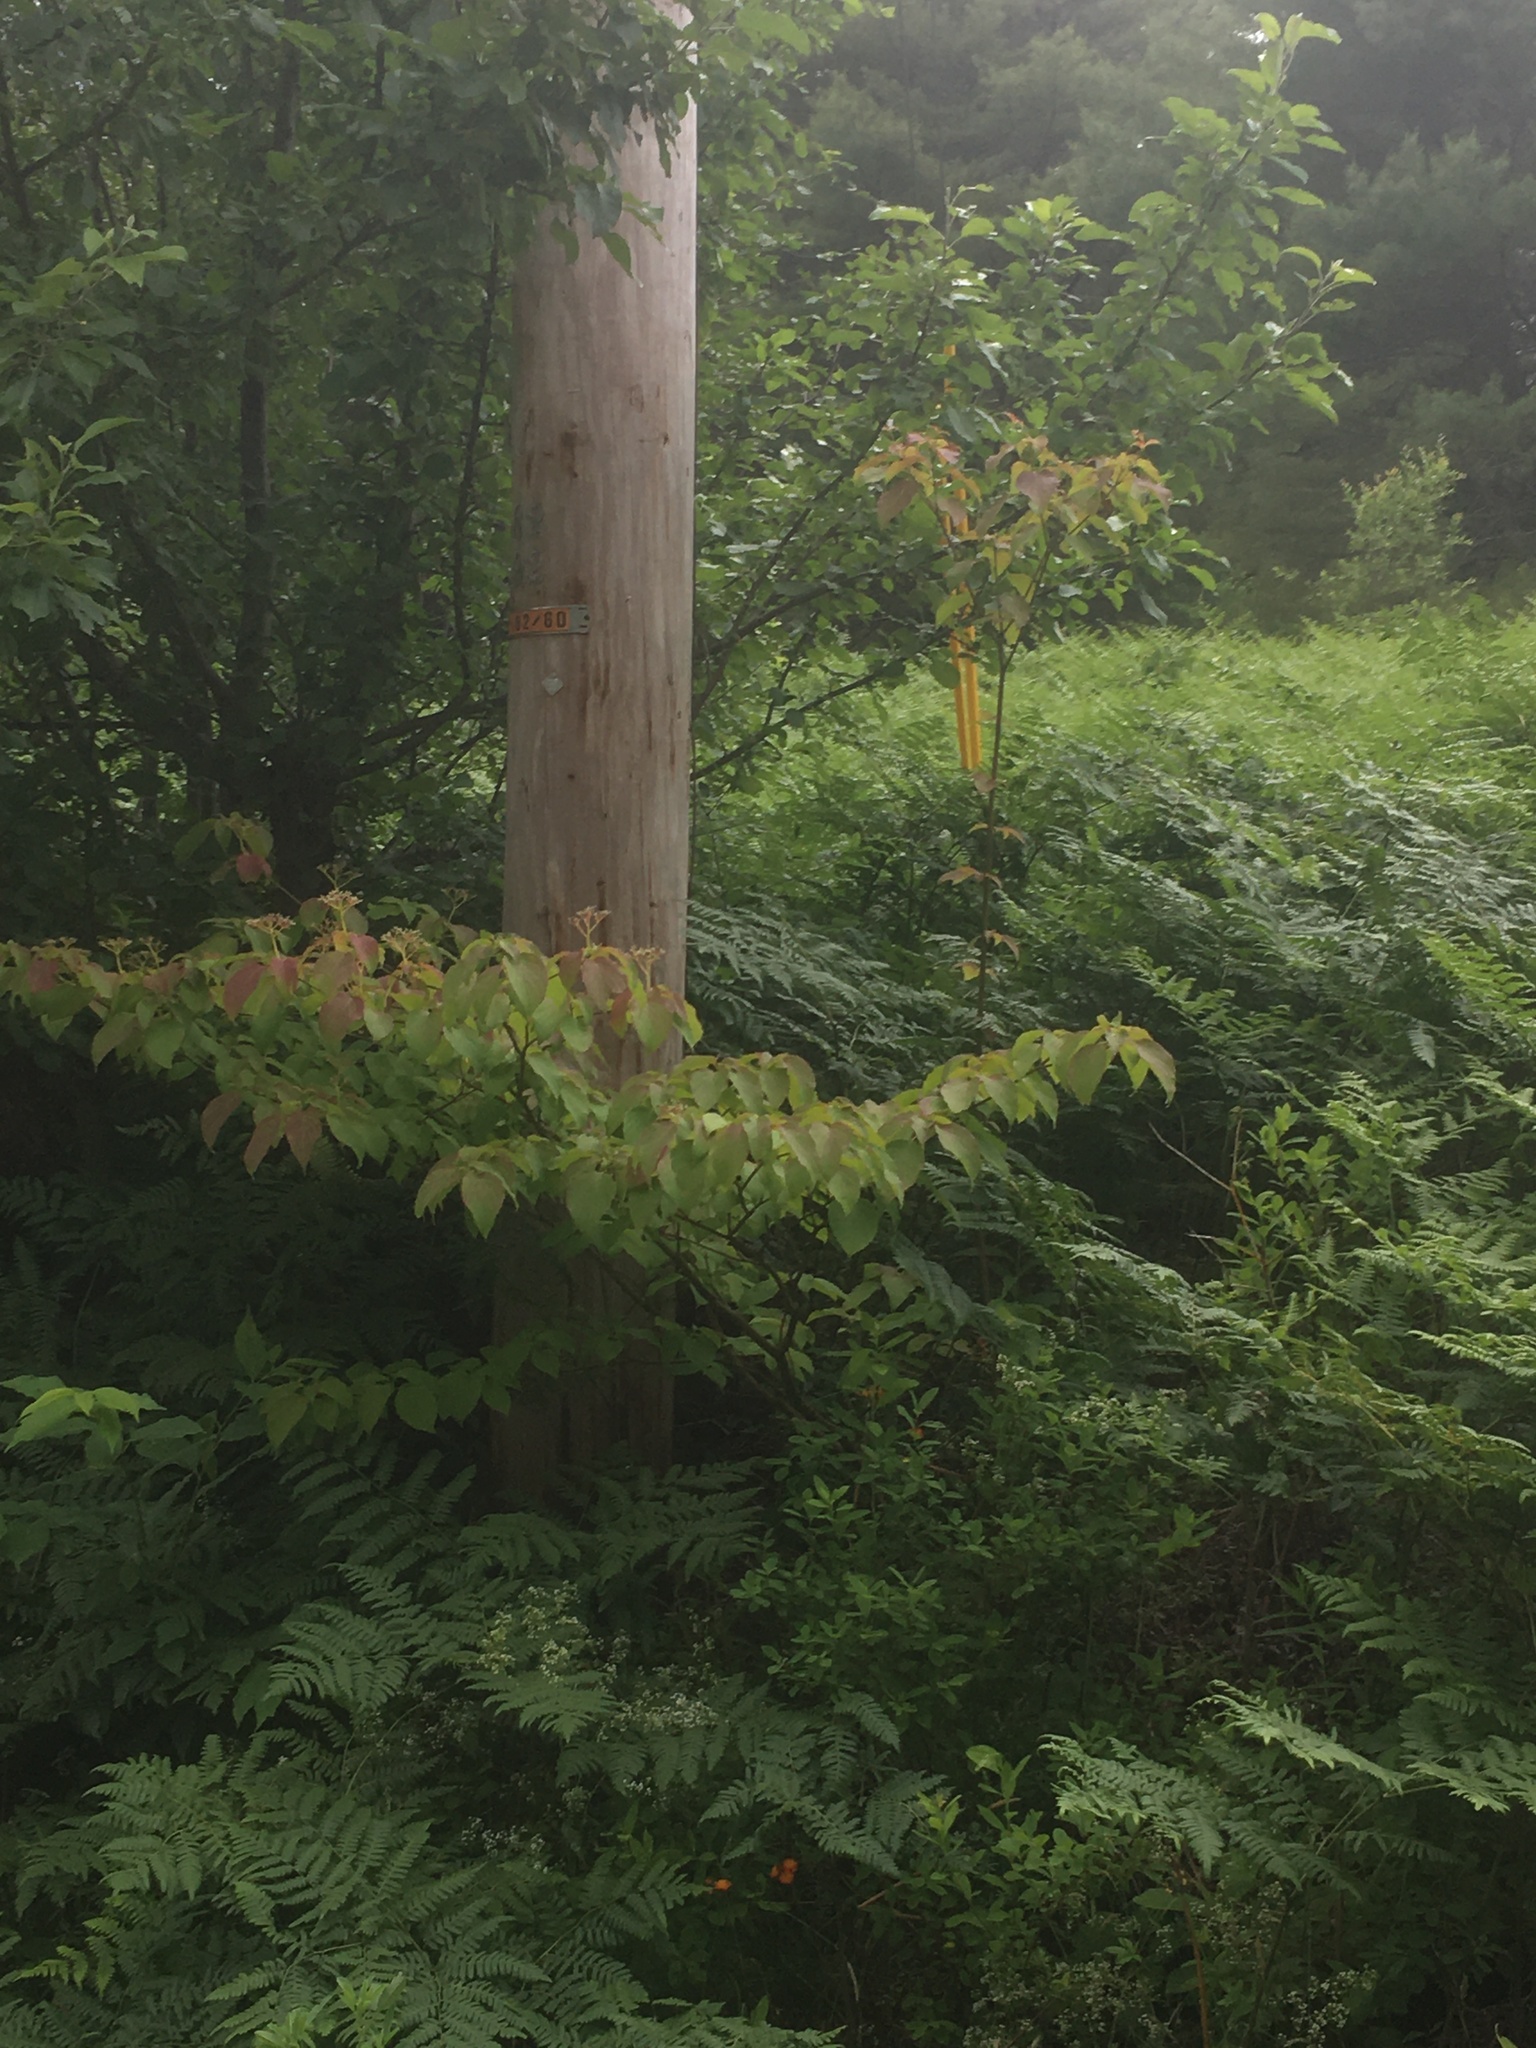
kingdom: Plantae
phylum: Tracheophyta
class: Magnoliopsida
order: Cornales
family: Cornaceae
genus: Cornus
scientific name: Cornus alternifolia
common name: Pagoda dogwood
